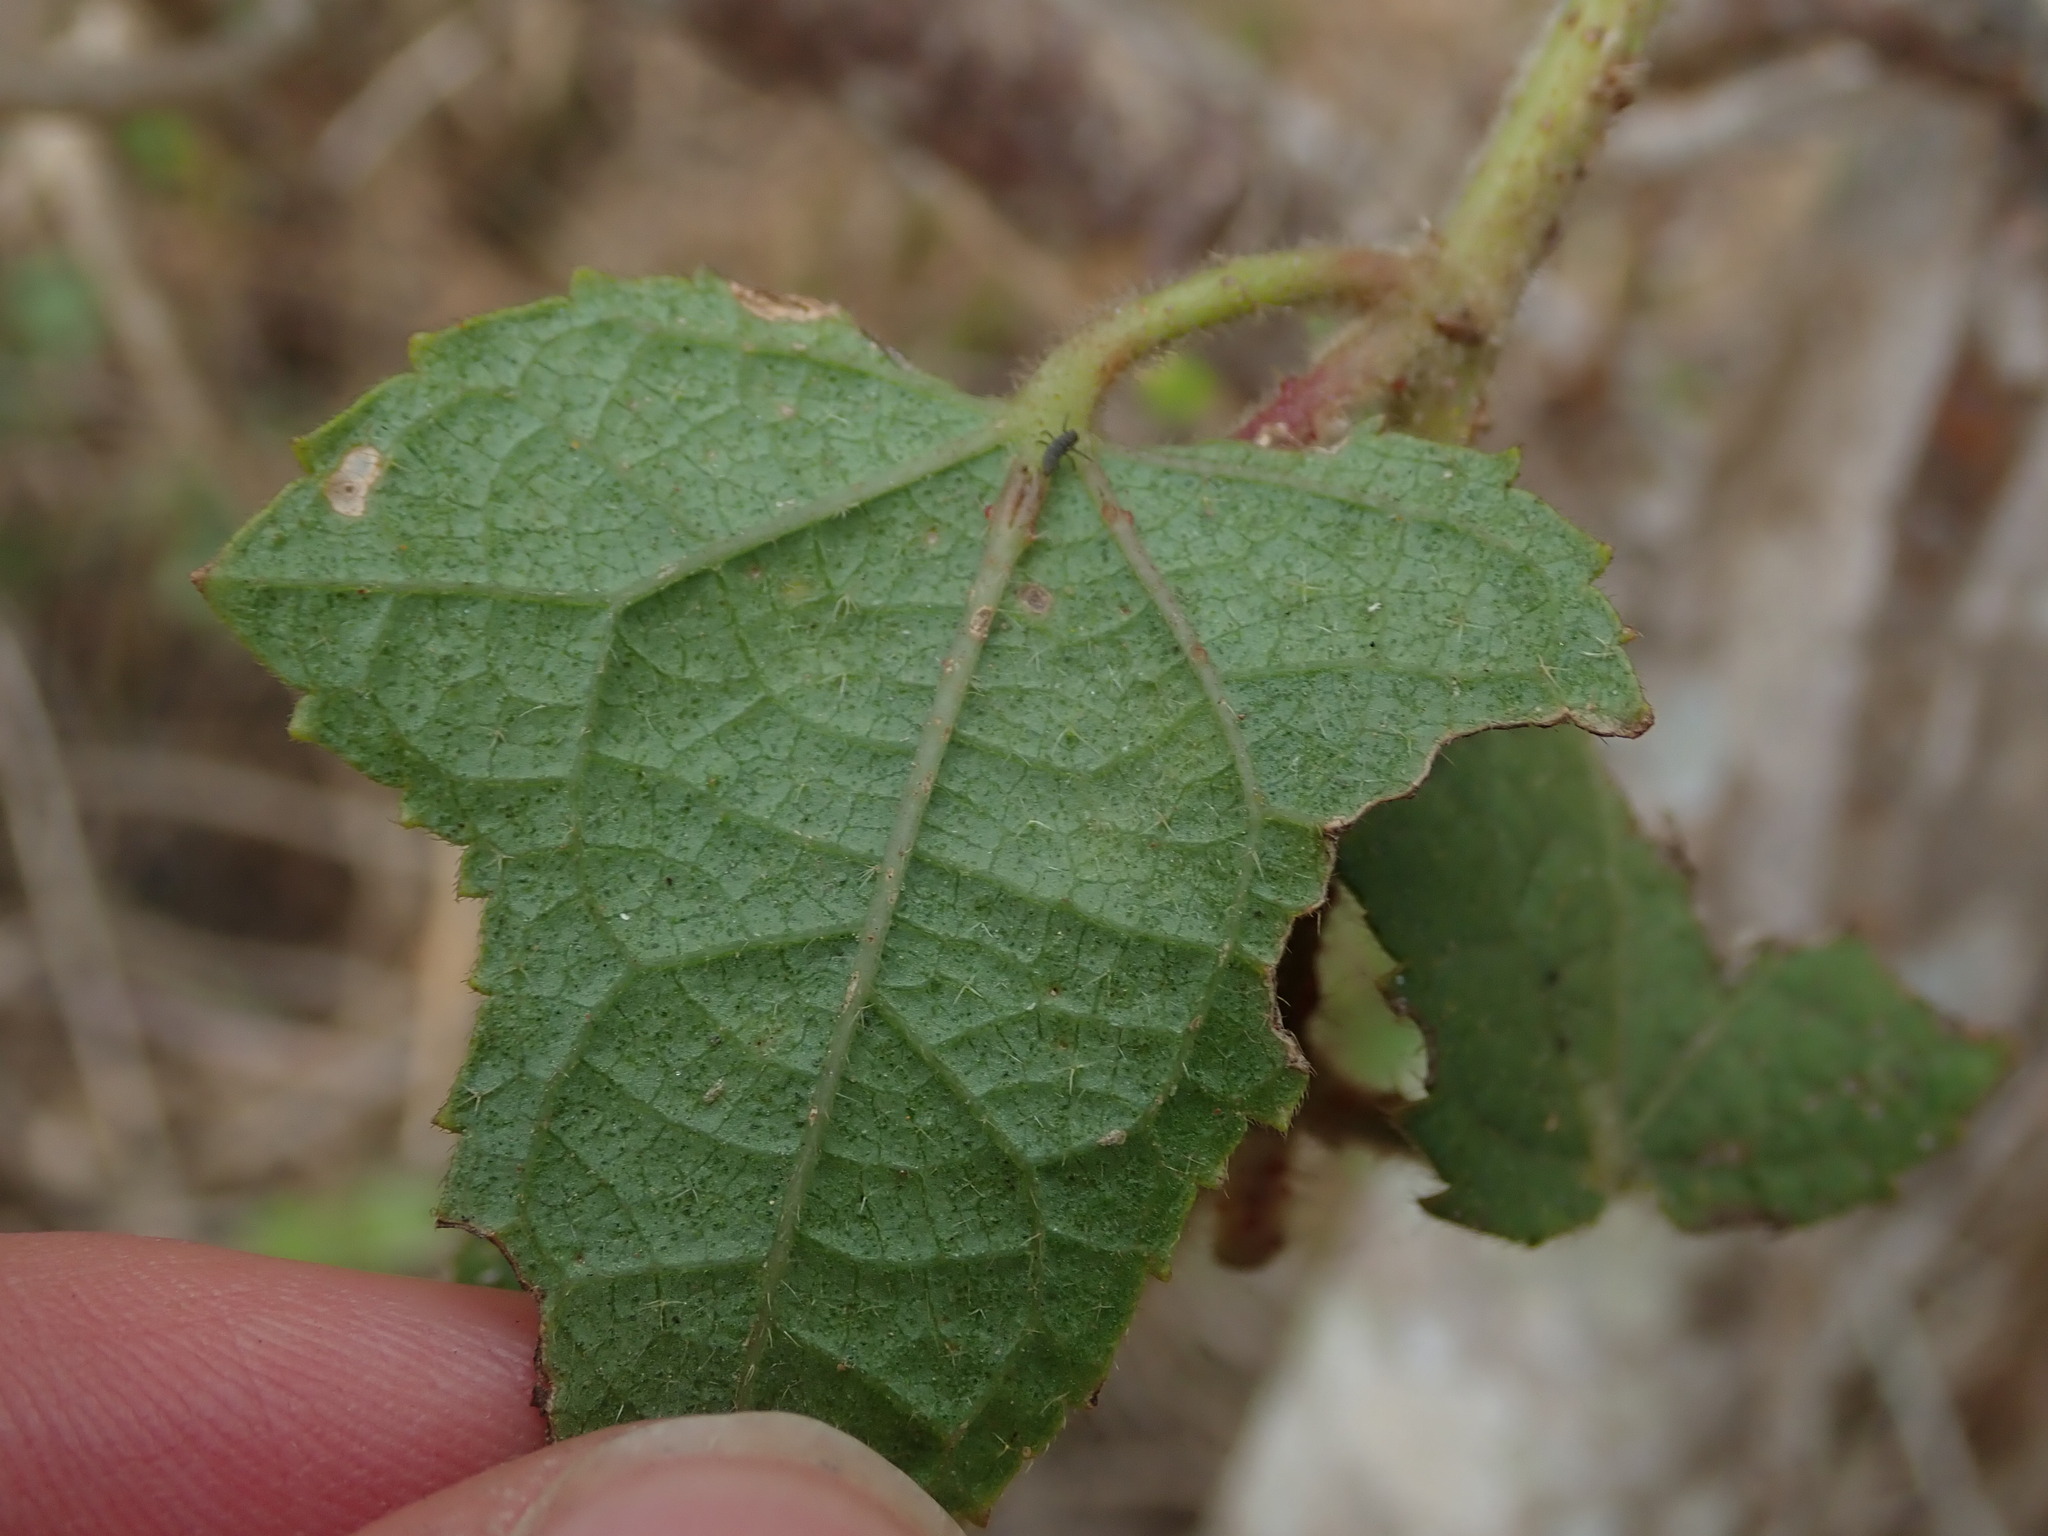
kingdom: Plantae
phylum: Tracheophyta
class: Magnoliopsida
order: Malvales
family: Malvaceae
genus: Hibiscus
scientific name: Hibiscus surattensis
